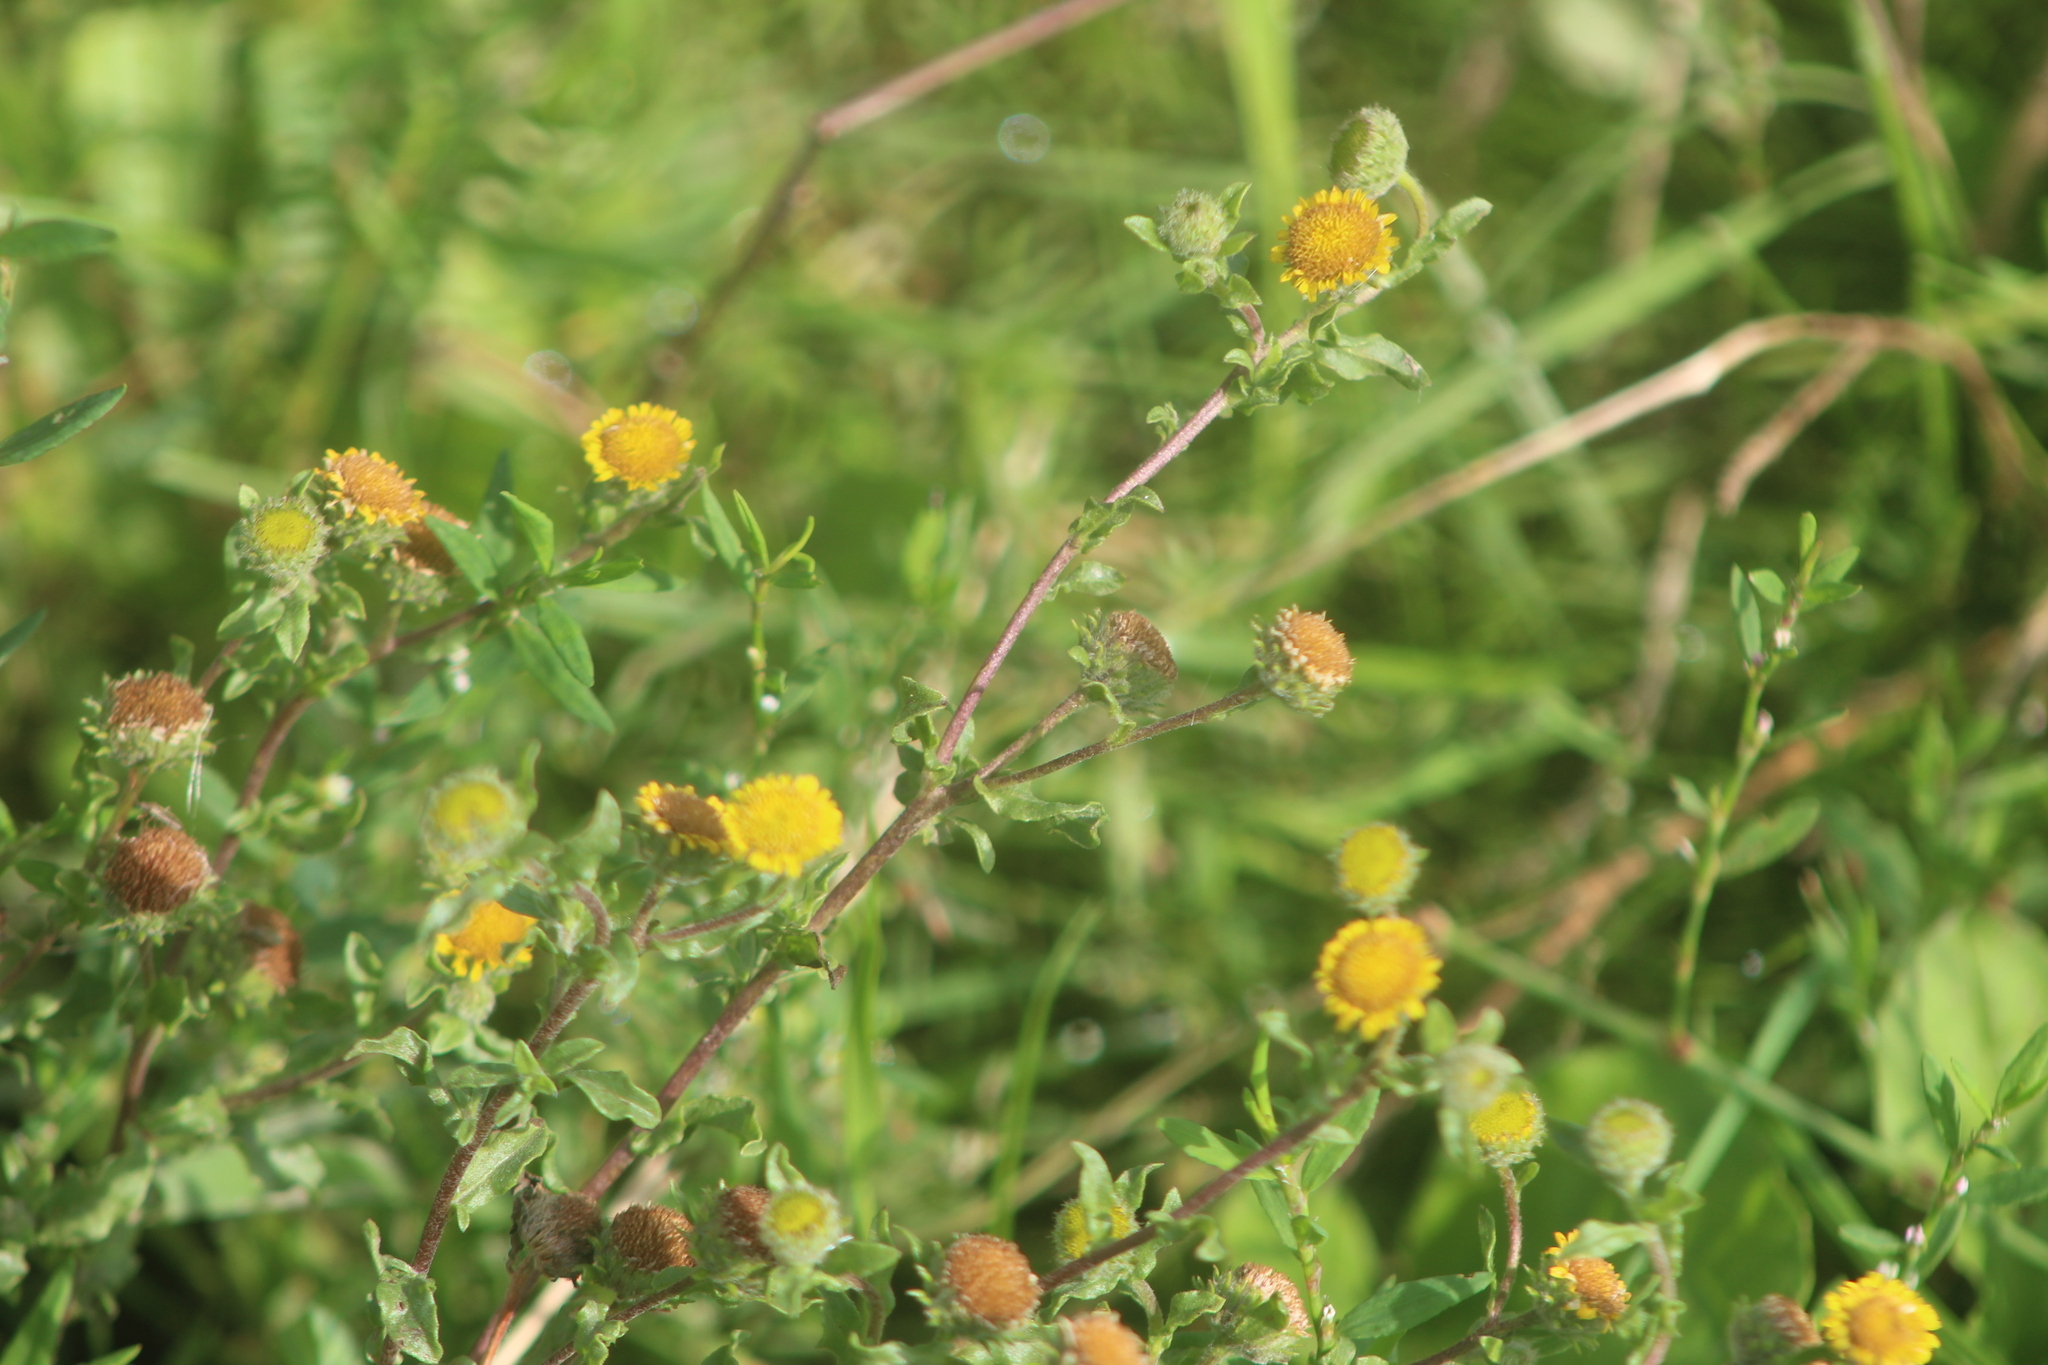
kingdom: Plantae
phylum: Tracheophyta
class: Magnoliopsida
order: Asterales
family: Asteraceae
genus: Pulicaria
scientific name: Pulicaria vulgaris
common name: Small fleabane
